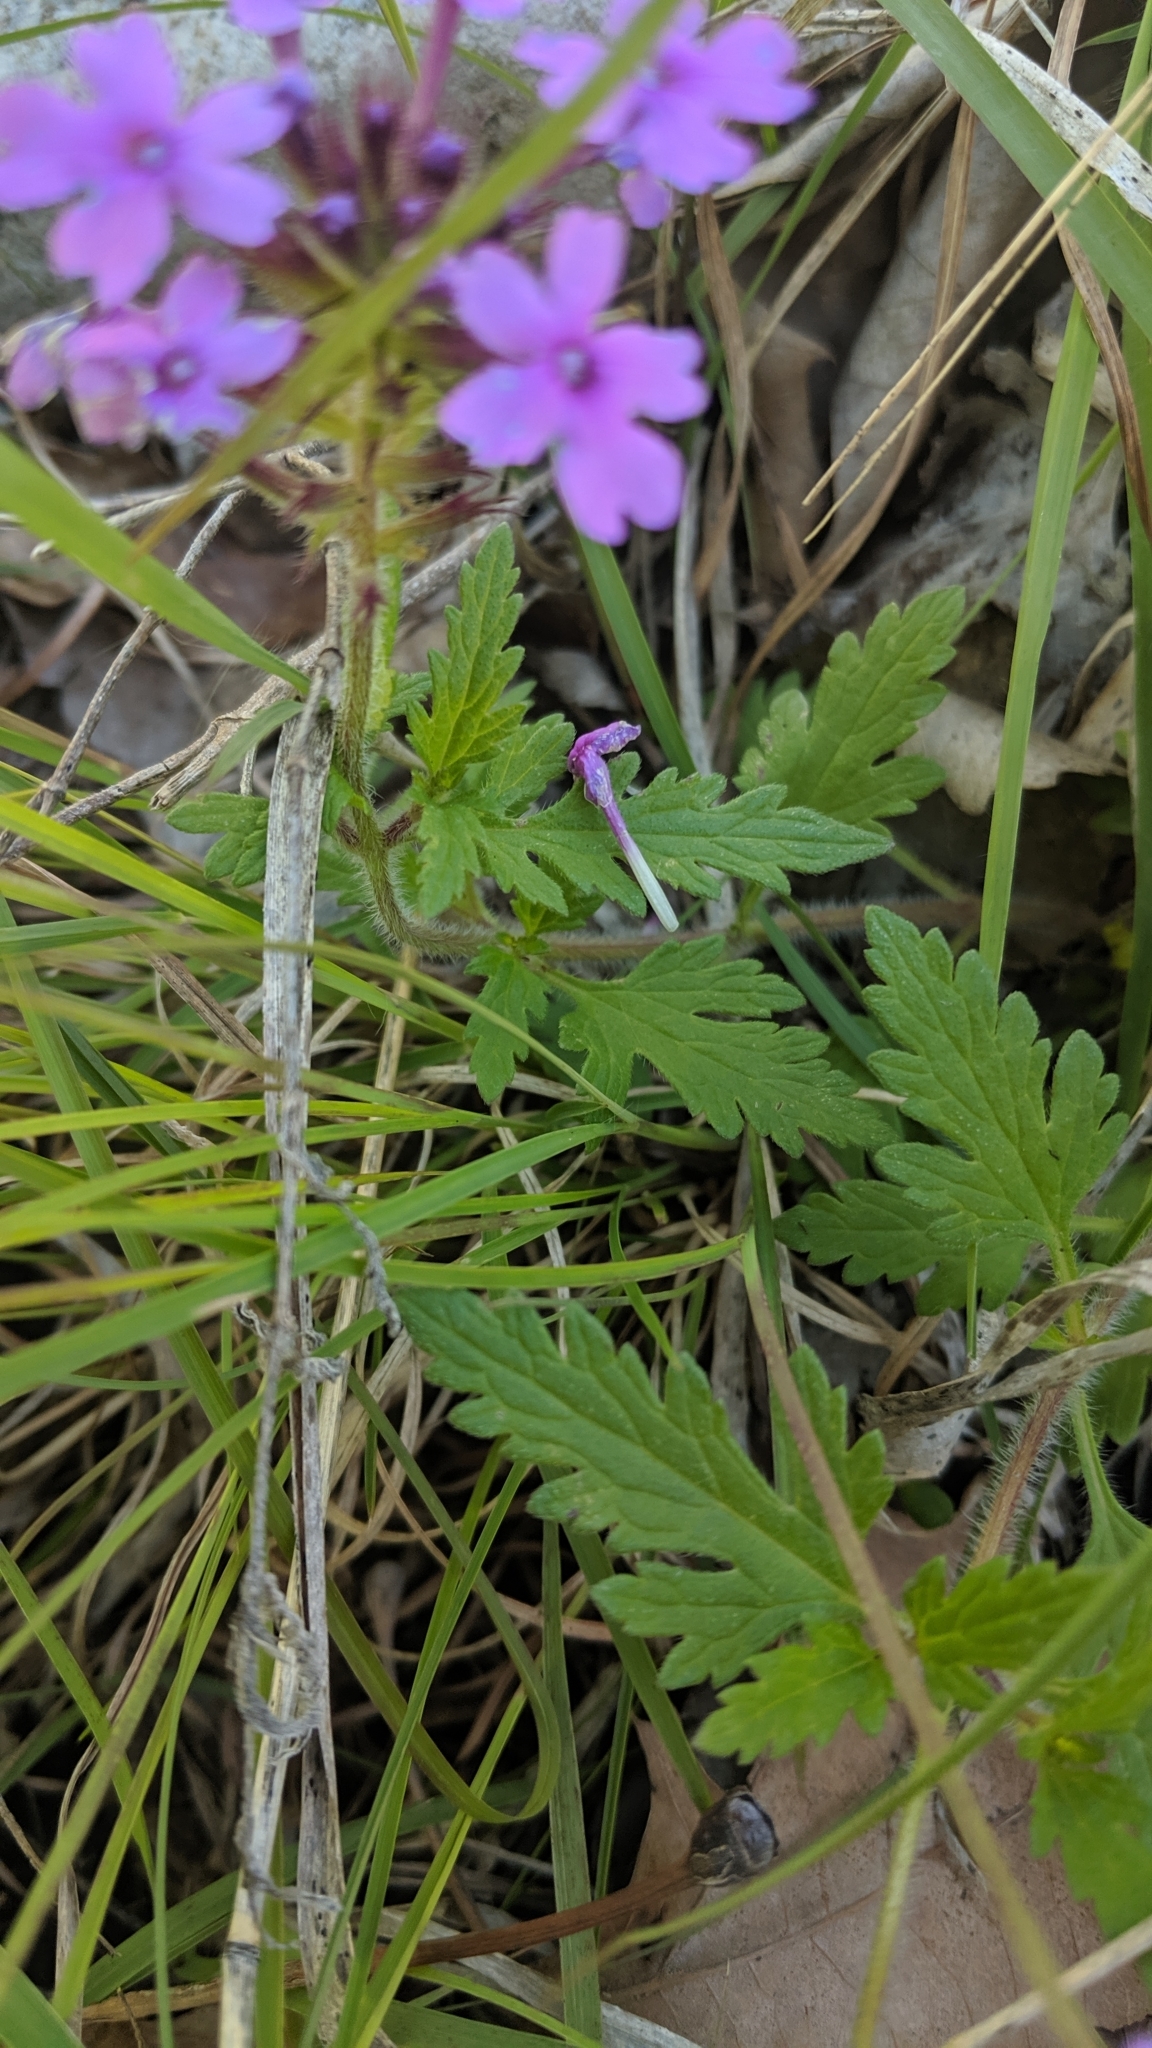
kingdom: Plantae
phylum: Tracheophyta
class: Magnoliopsida
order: Lamiales
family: Verbenaceae
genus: Verbena
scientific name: Verbena canadensis
